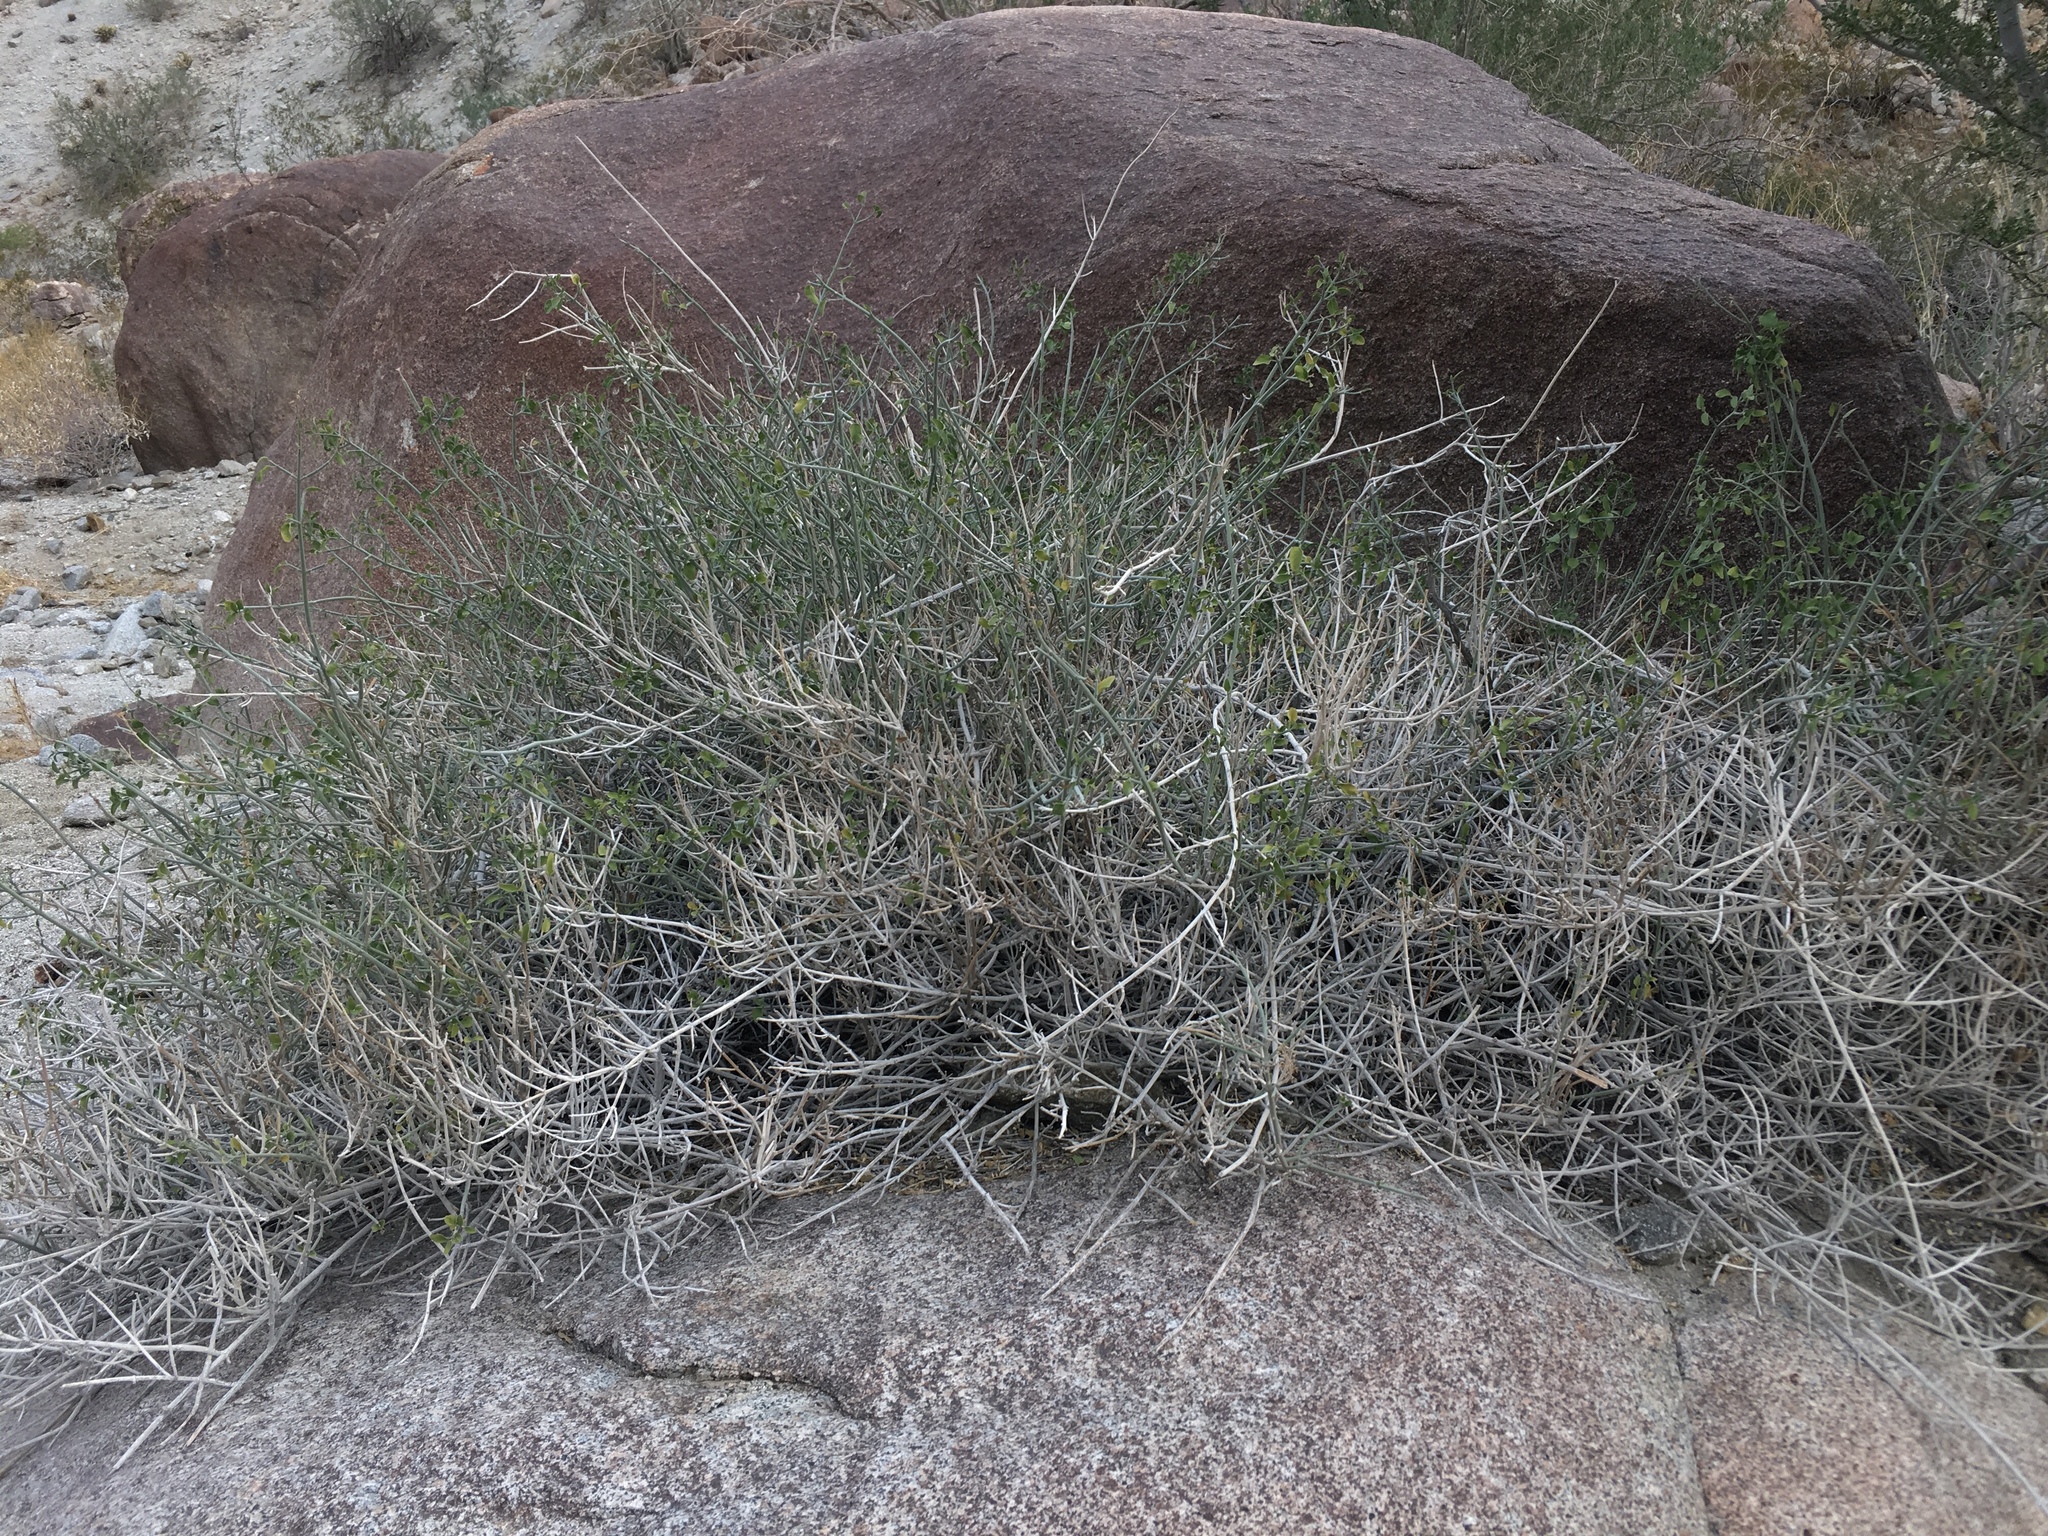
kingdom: Plantae
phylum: Tracheophyta
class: Magnoliopsida
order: Lamiales
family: Acanthaceae
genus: Justicia
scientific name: Justicia californica
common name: Chuparosa-honeysuckle
